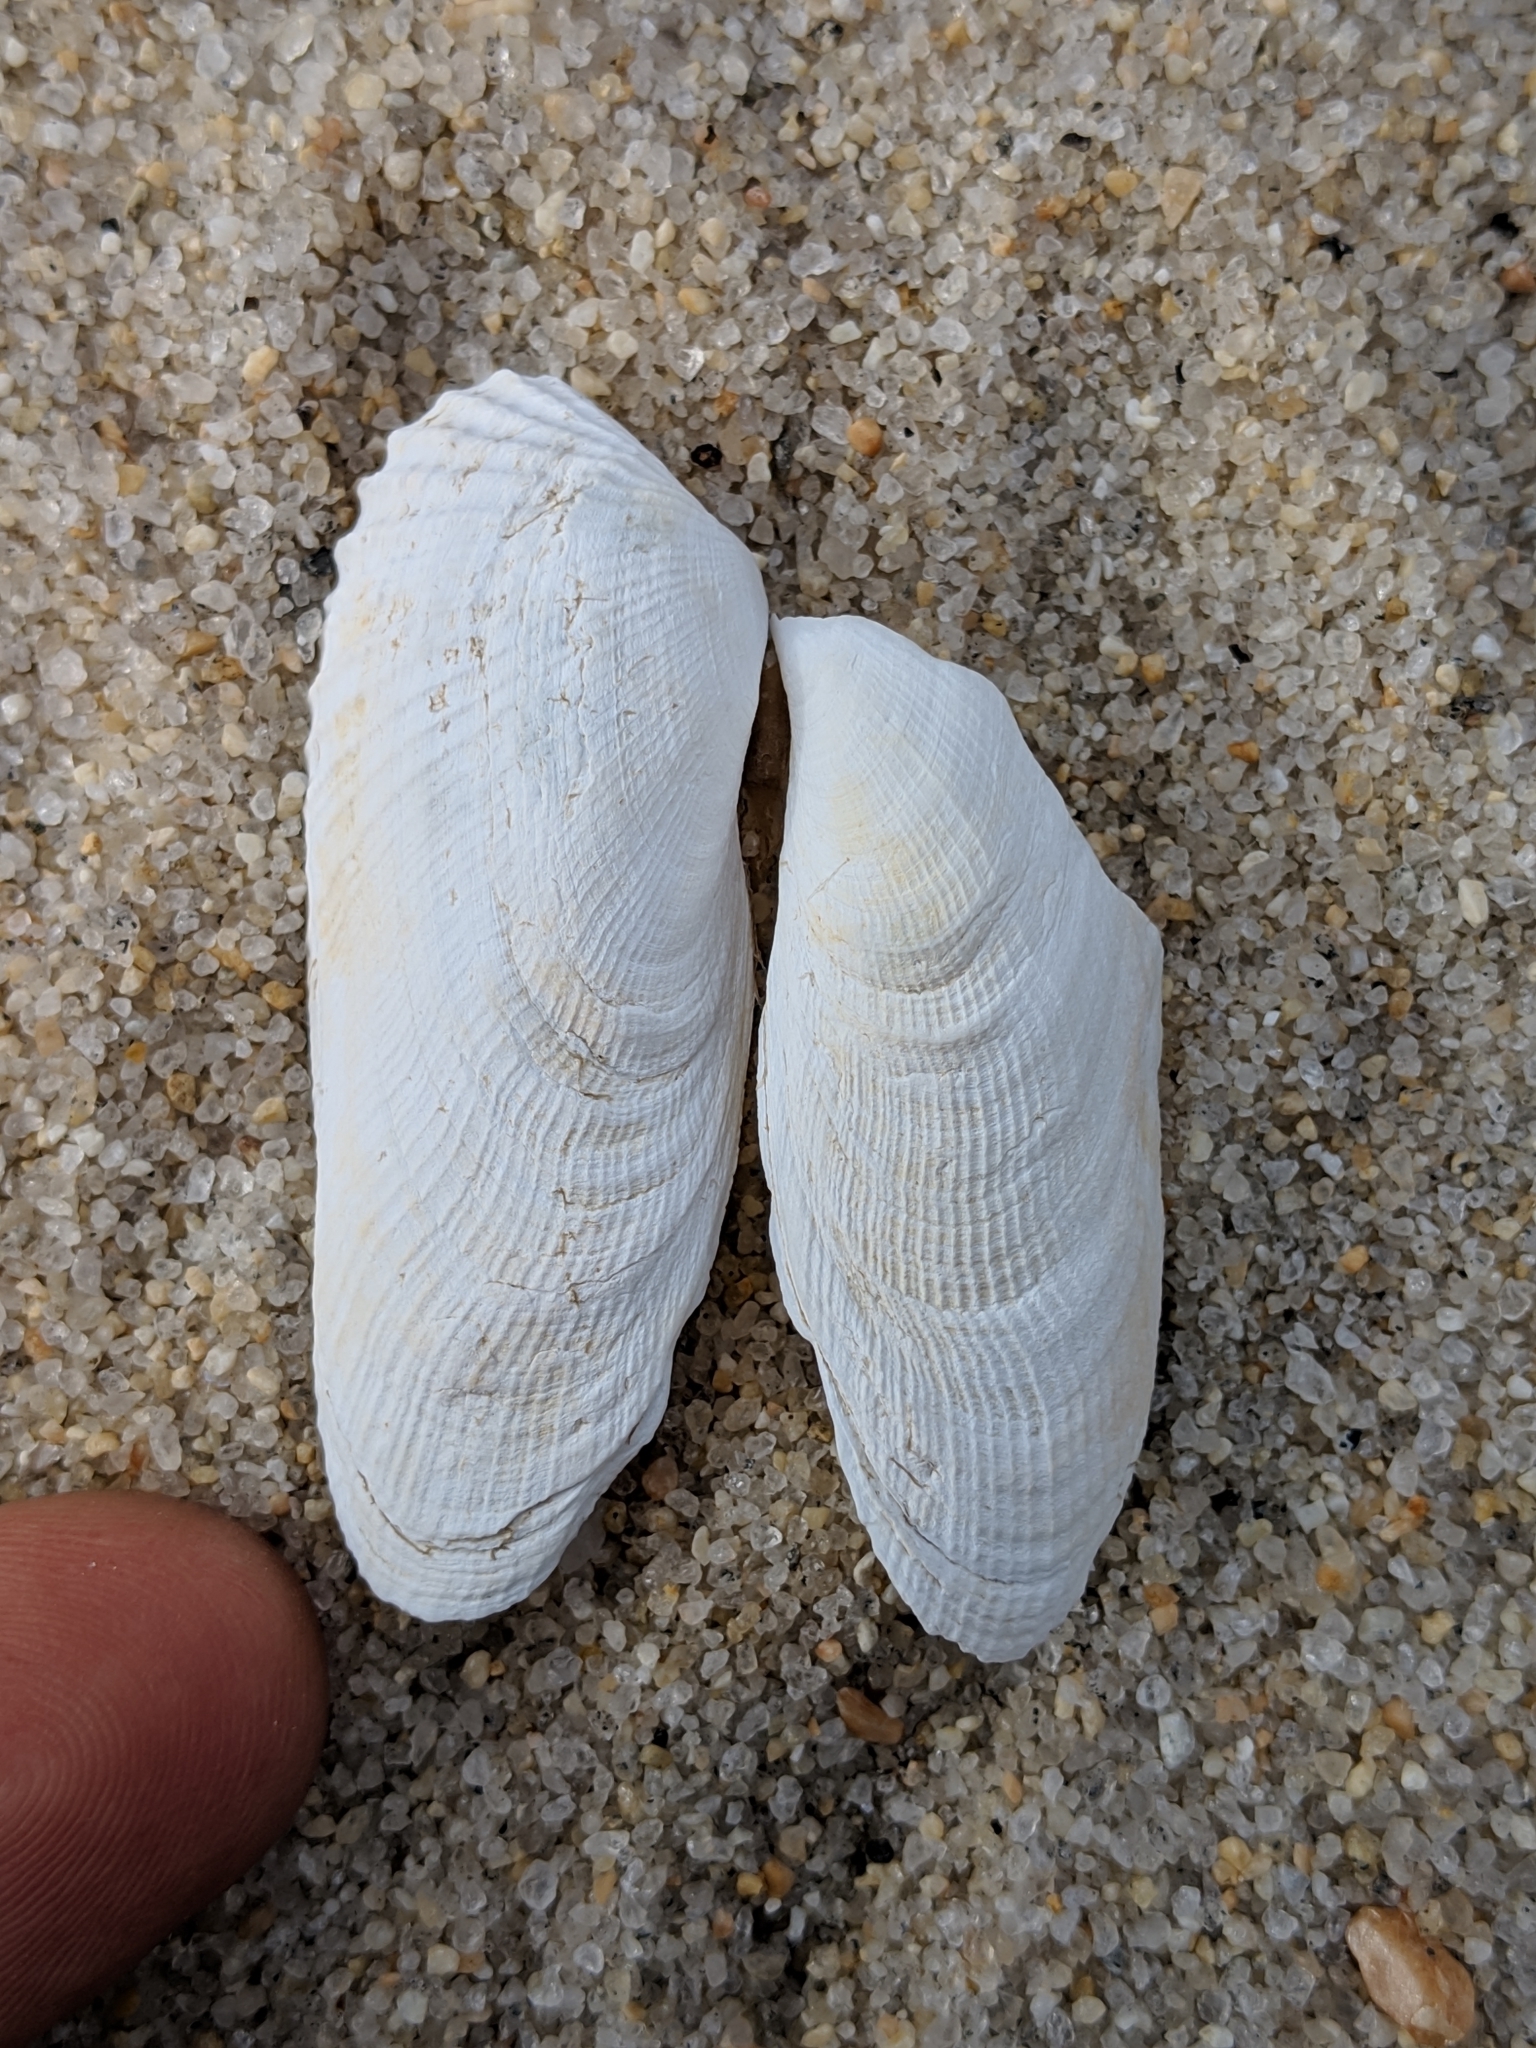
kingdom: Animalia
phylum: Mollusca
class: Bivalvia
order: Venerida
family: Veneridae
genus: Petricolaria
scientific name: Petricolaria pholadiformis
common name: American piddock
